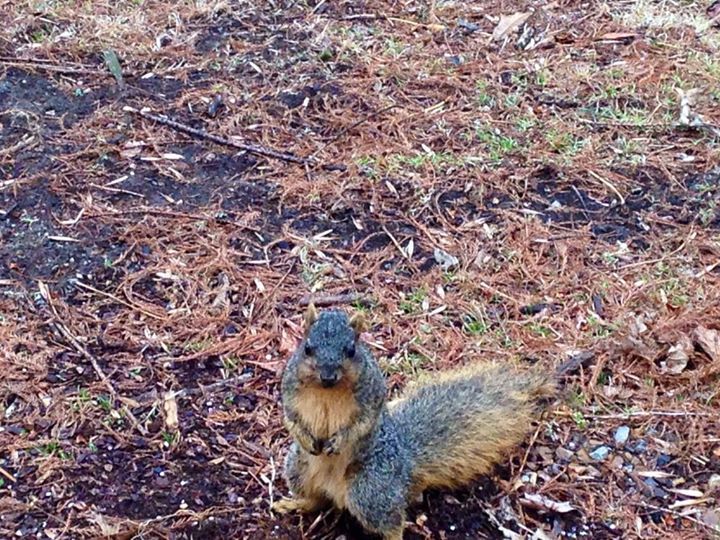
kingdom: Animalia
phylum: Chordata
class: Mammalia
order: Rodentia
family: Sciuridae
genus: Sciurus
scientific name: Sciurus niger
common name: Fox squirrel
